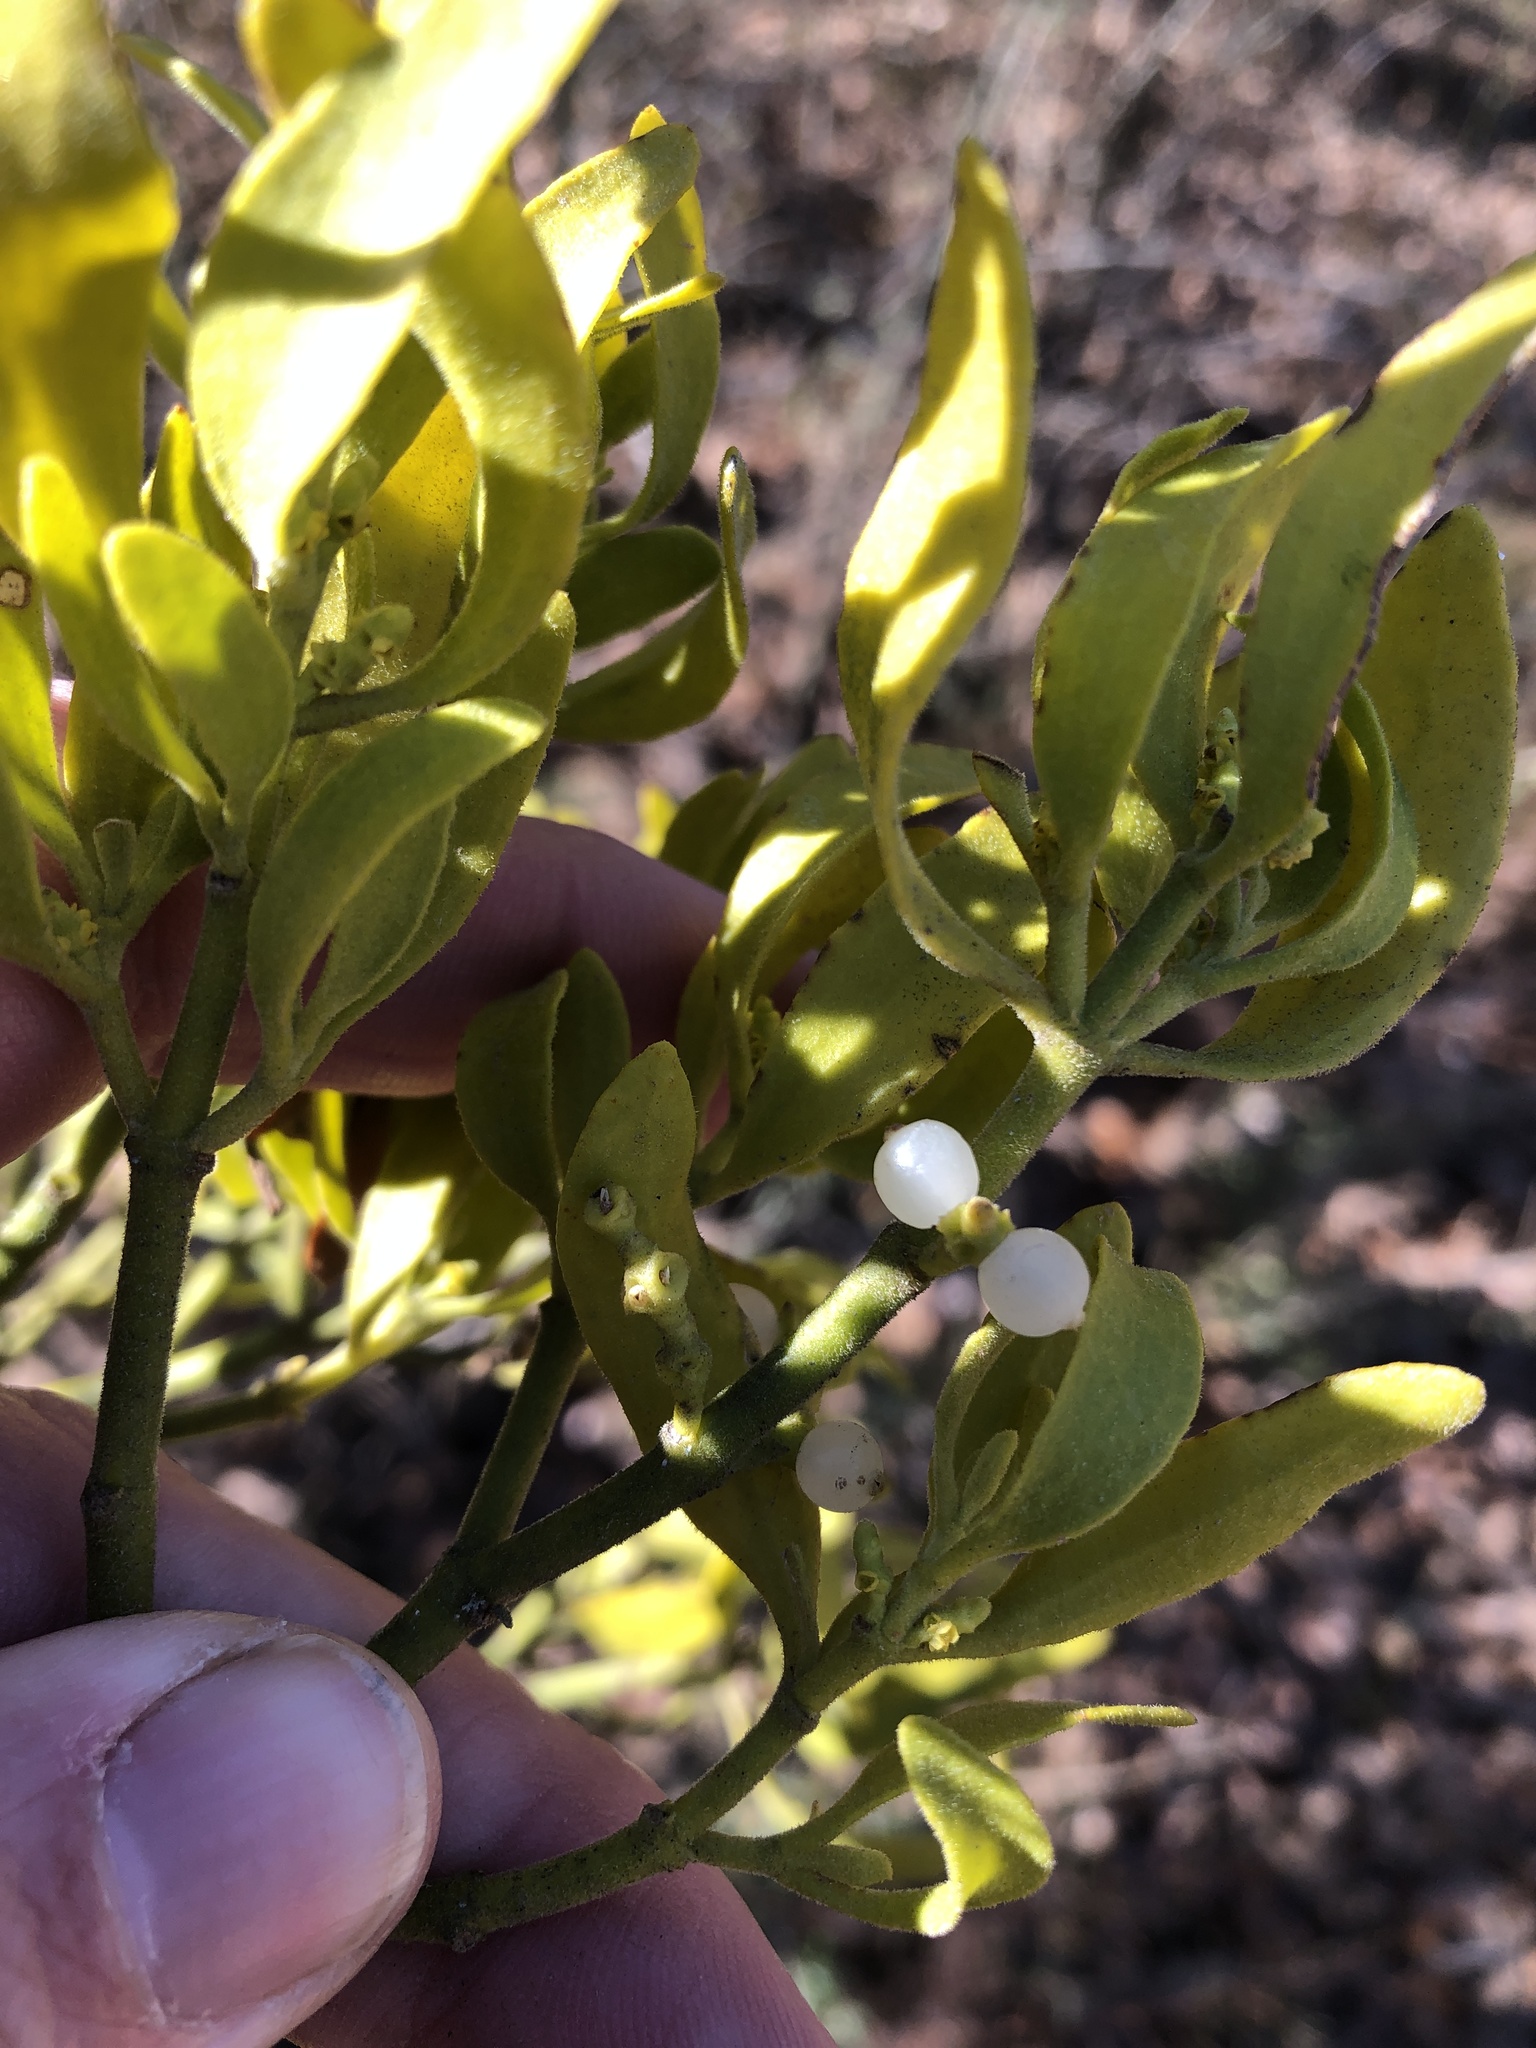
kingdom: Plantae
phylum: Tracheophyta
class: Magnoliopsida
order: Santalales
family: Viscaceae
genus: Phoradendron
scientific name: Phoradendron leucarpum
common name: Pacific mistletoe
